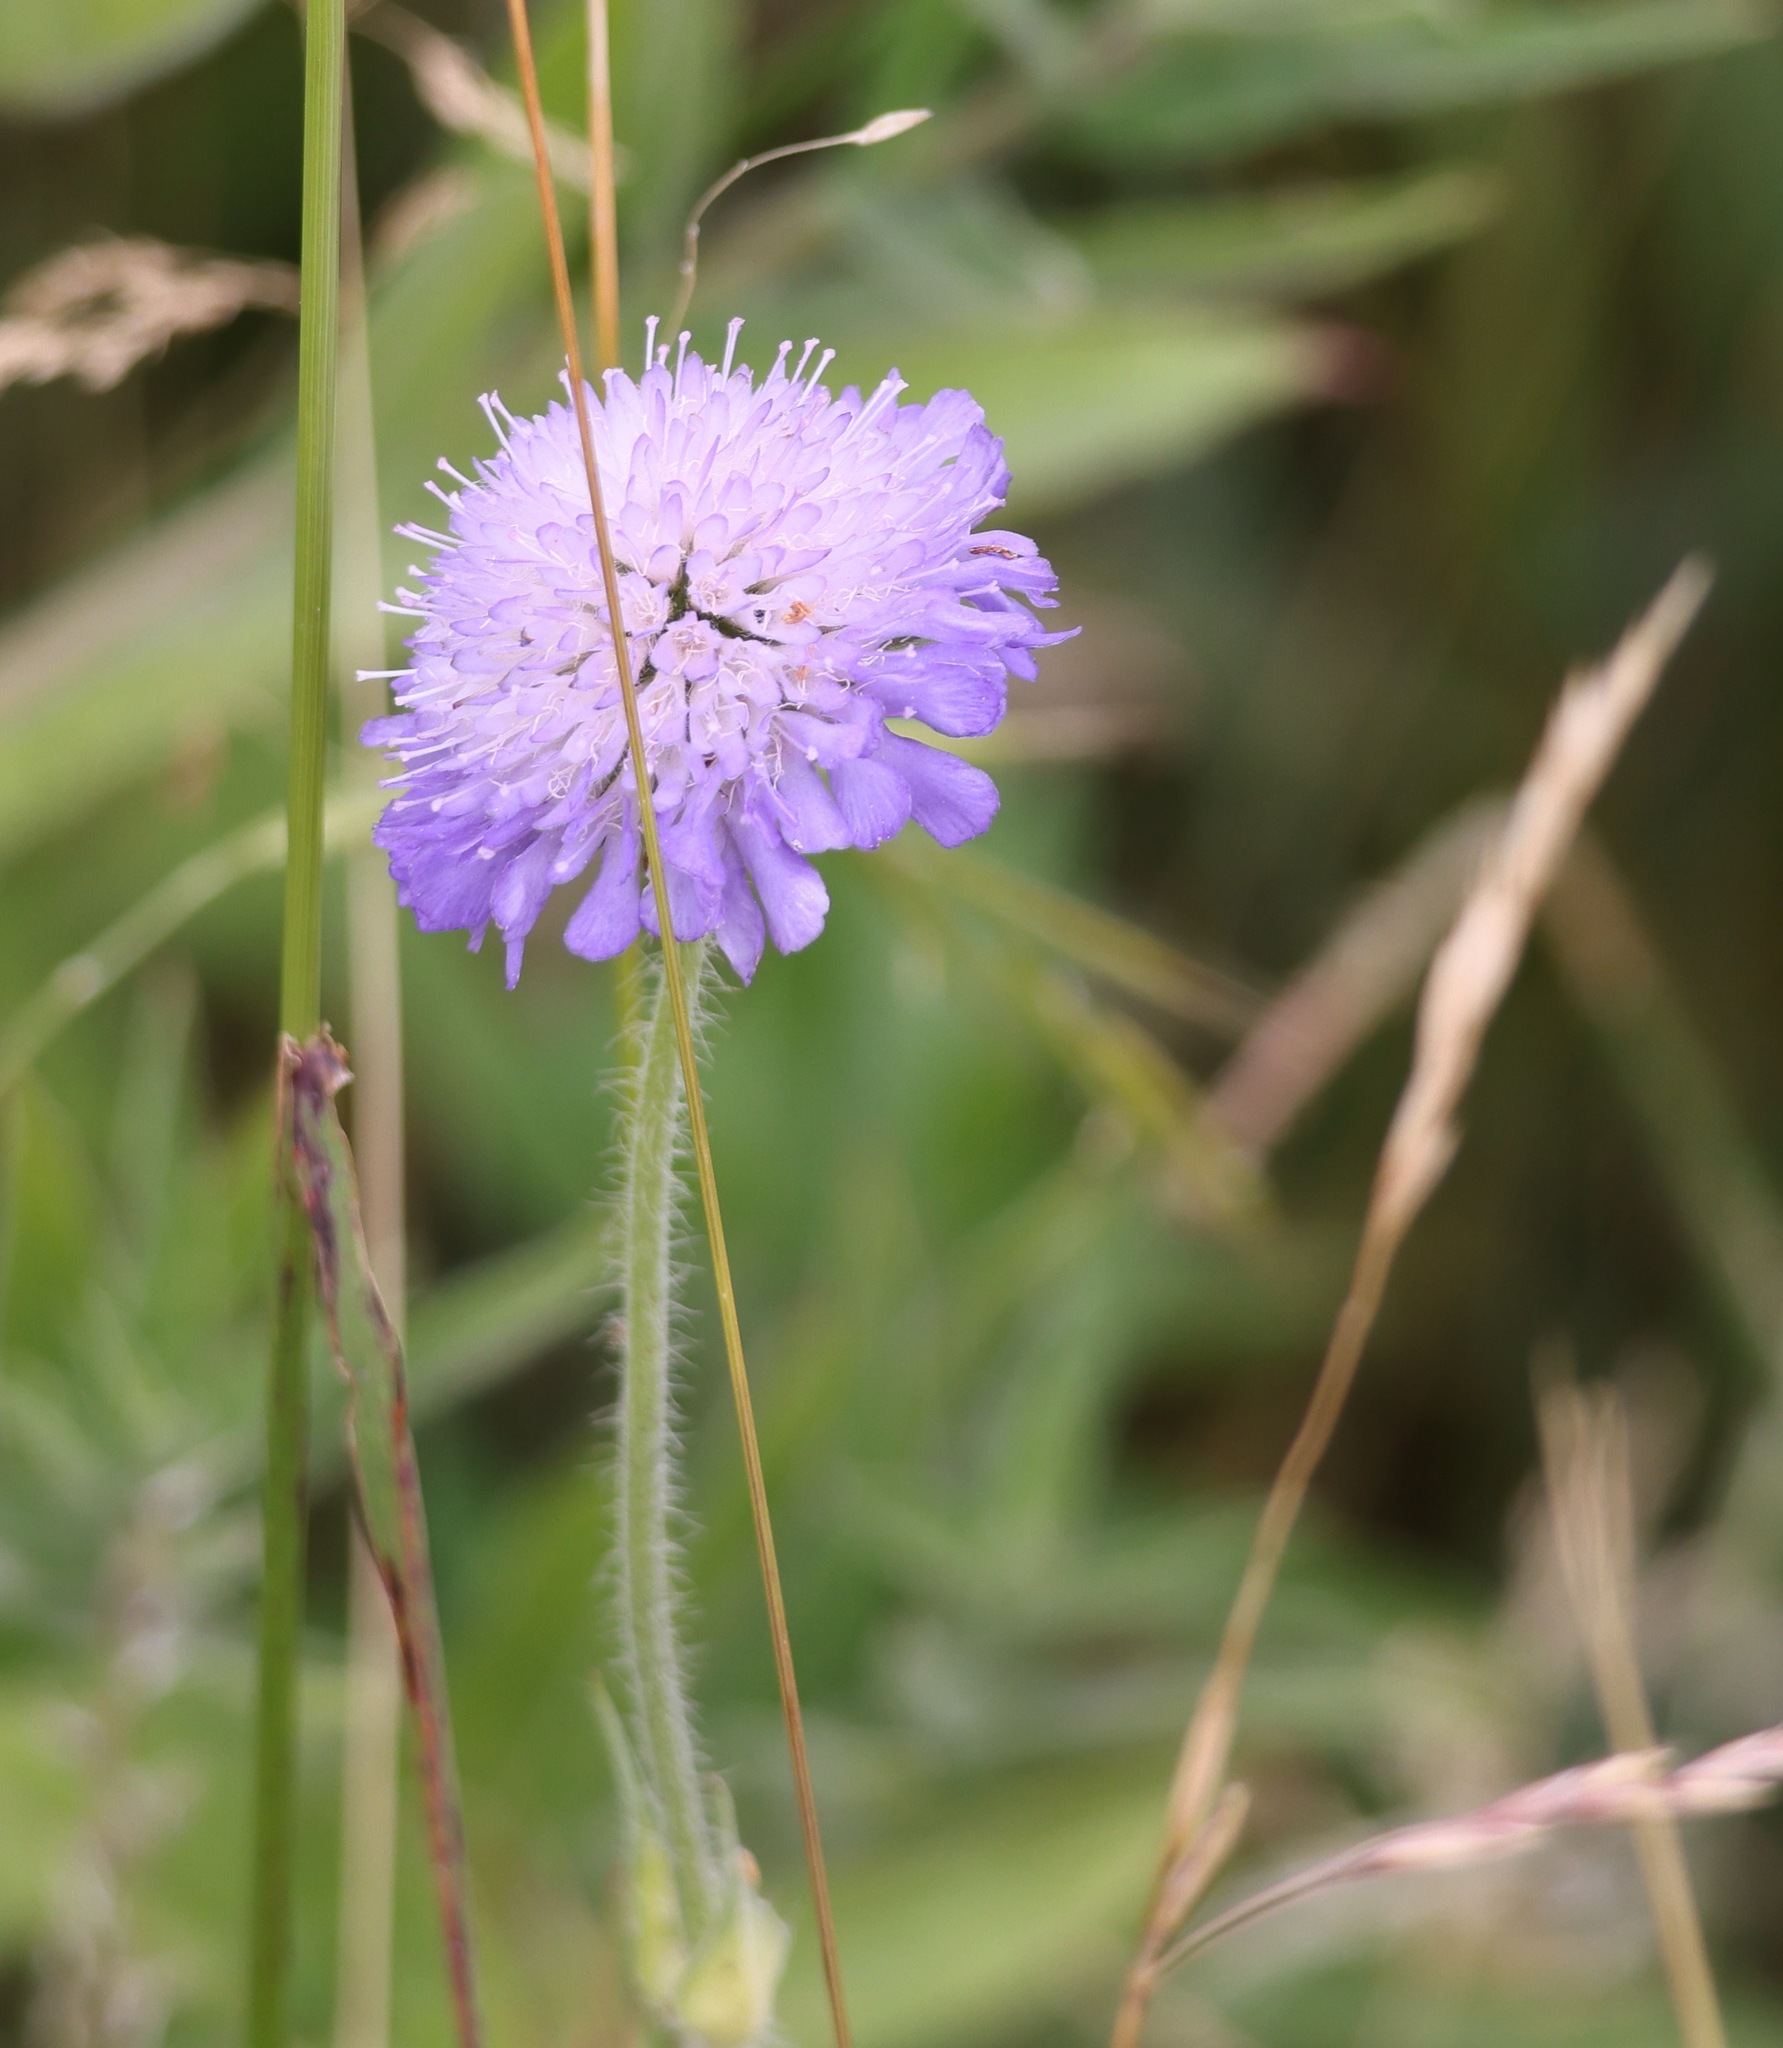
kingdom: Plantae
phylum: Tracheophyta
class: Magnoliopsida
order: Dipsacales
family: Caprifoliaceae
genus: Knautia
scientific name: Knautia arvensis
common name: Field scabiosa
